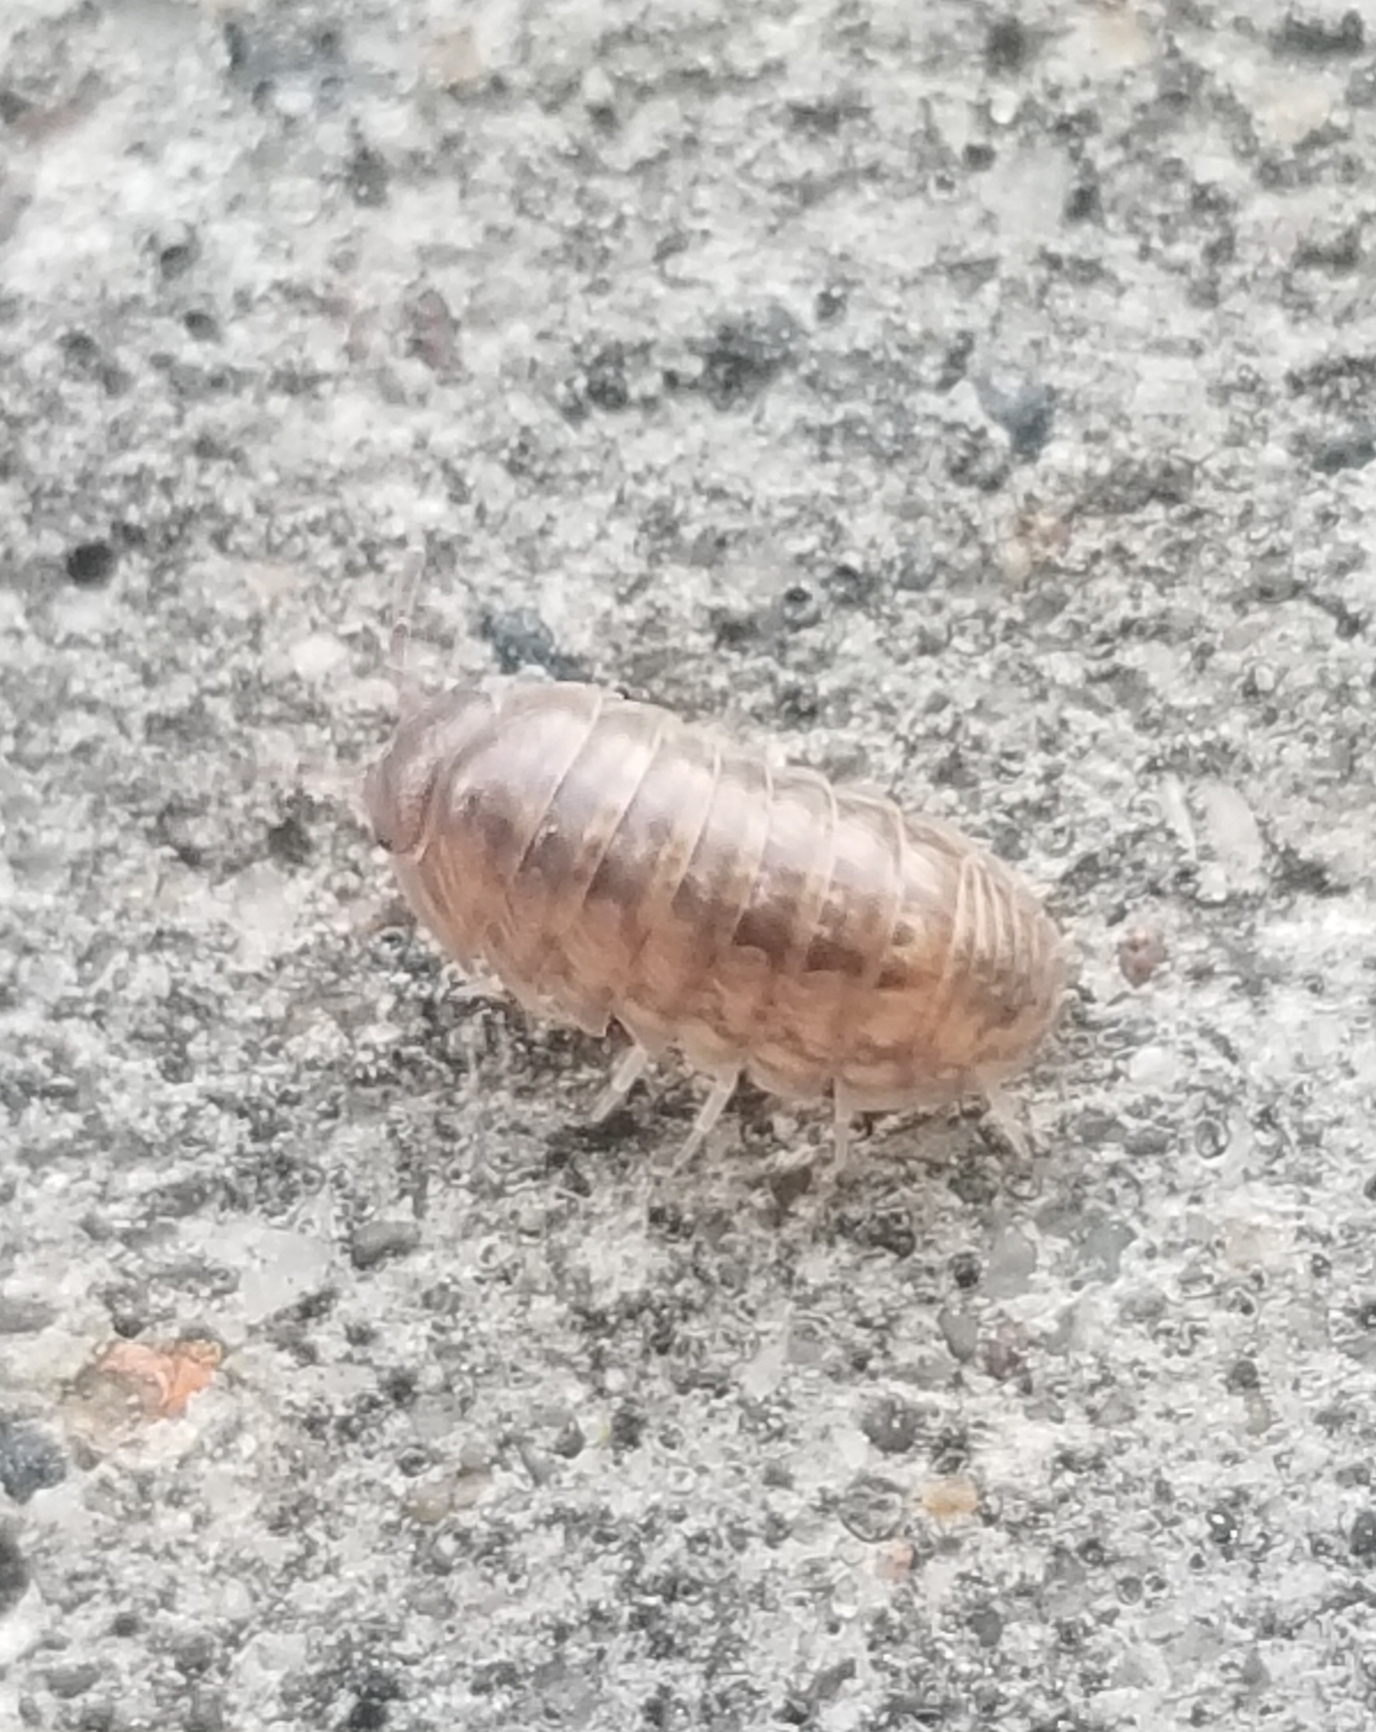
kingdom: Animalia
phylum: Arthropoda
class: Malacostraca
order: Isopoda
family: Armadillidiidae
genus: Armadillidium
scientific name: Armadillidium vulgare
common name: Common pill woodlouse
